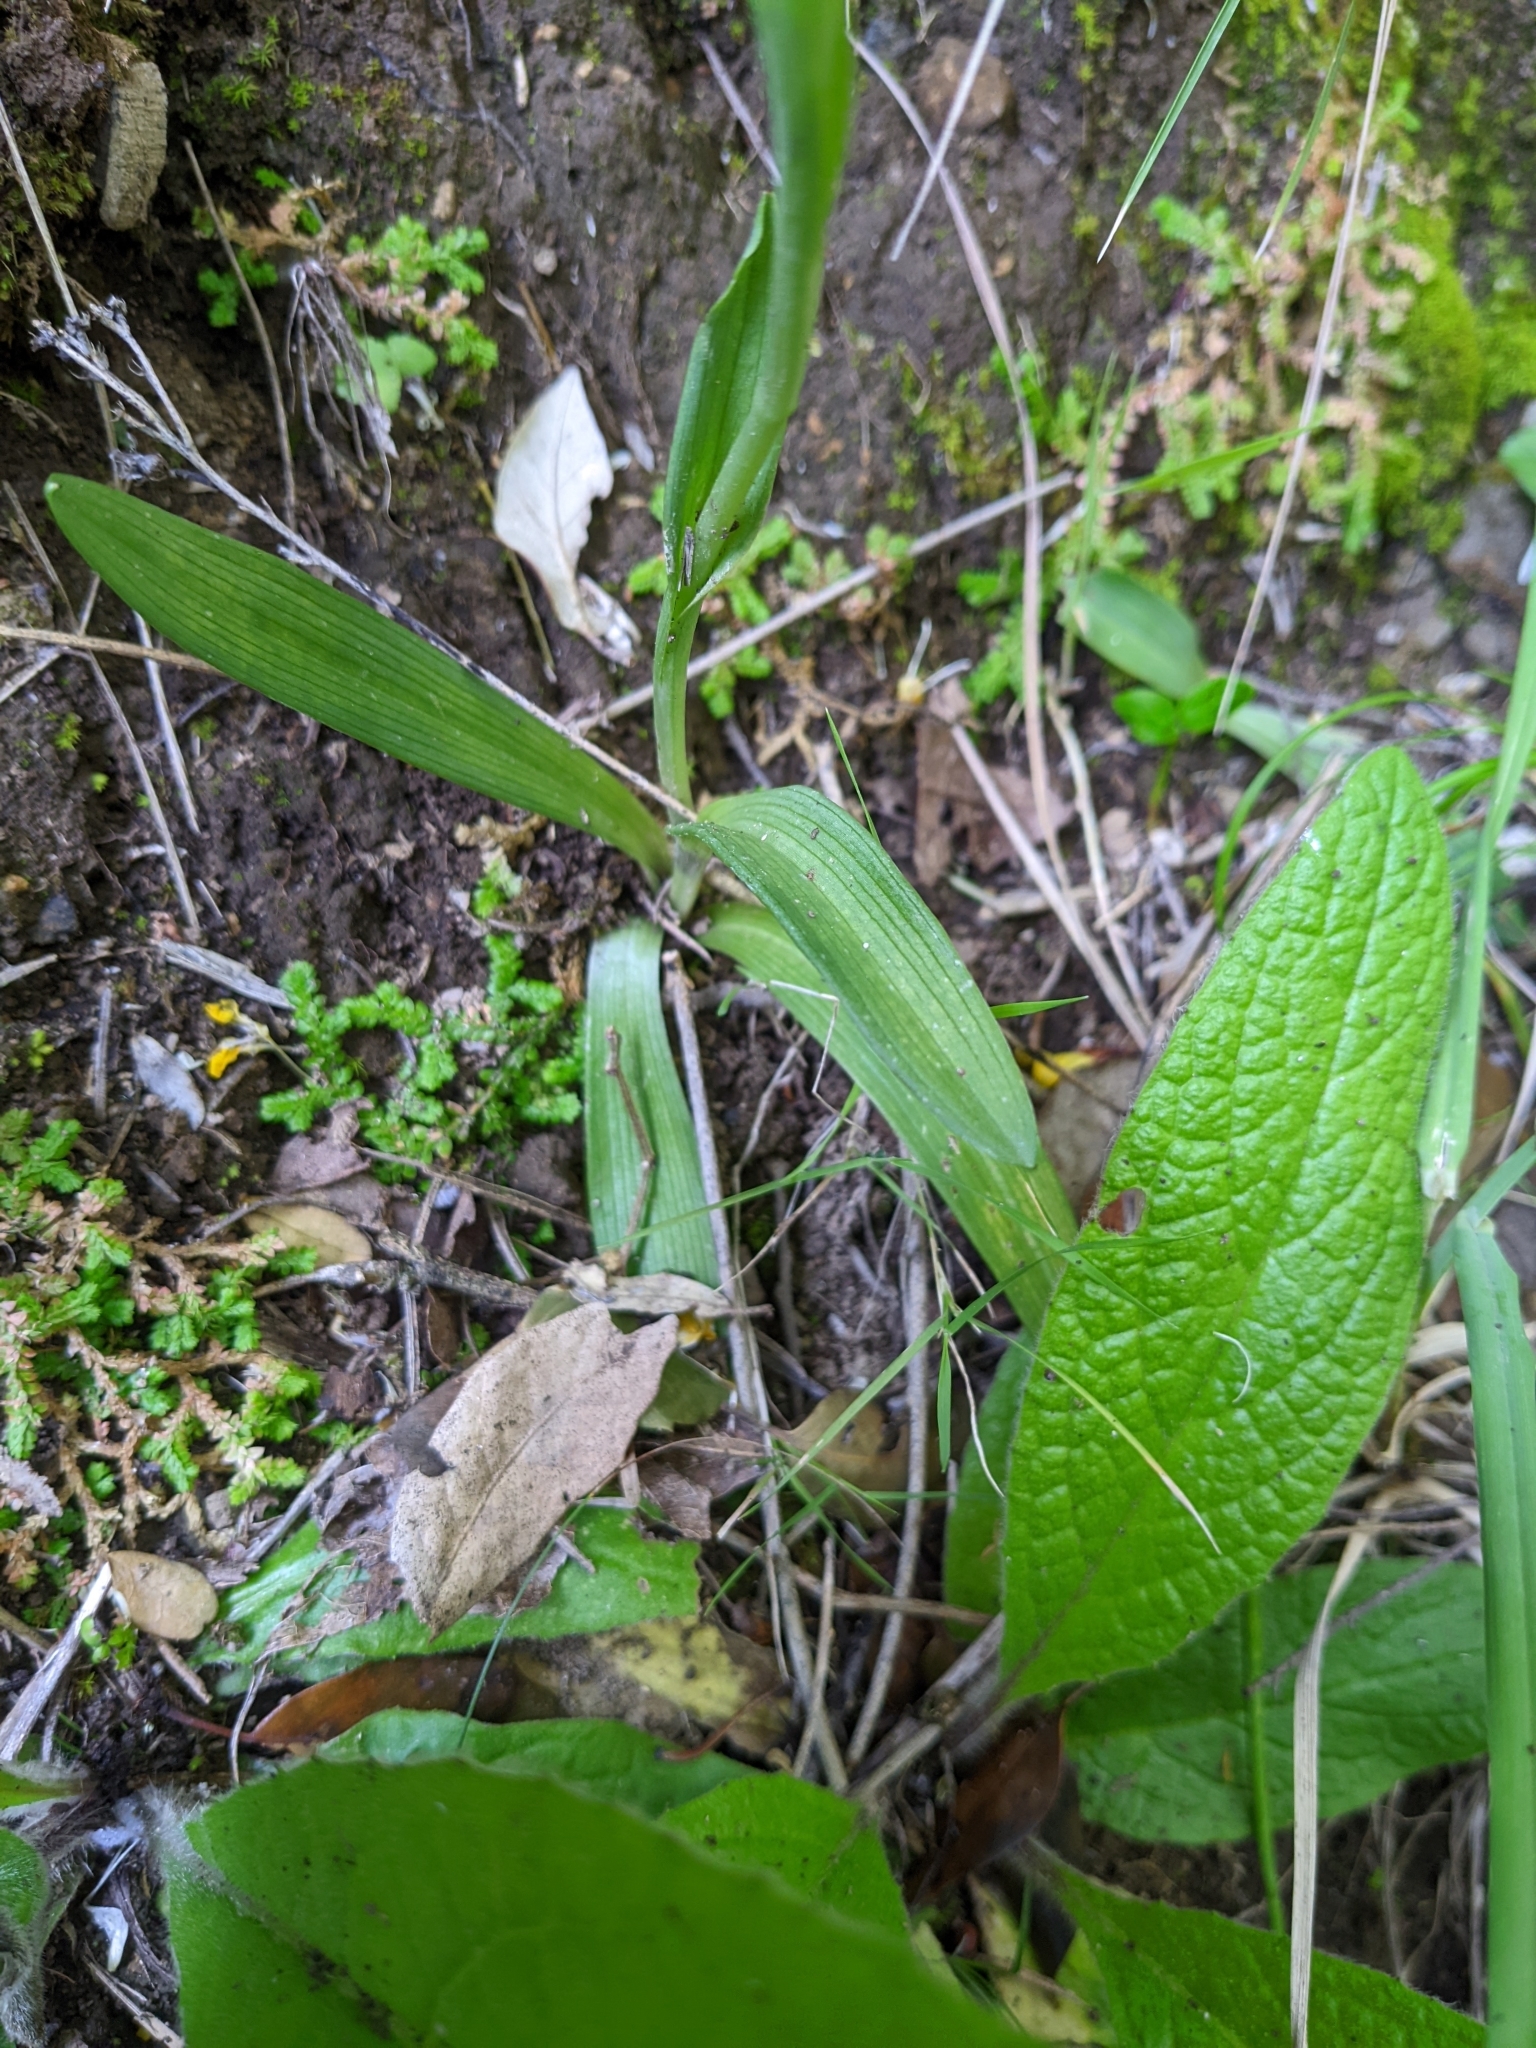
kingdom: Plantae
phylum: Tracheophyta
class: Liliopsida
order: Asparagales
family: Orchidaceae
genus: Ophrys
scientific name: Ophrys argolica
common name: Argolic ophrys
